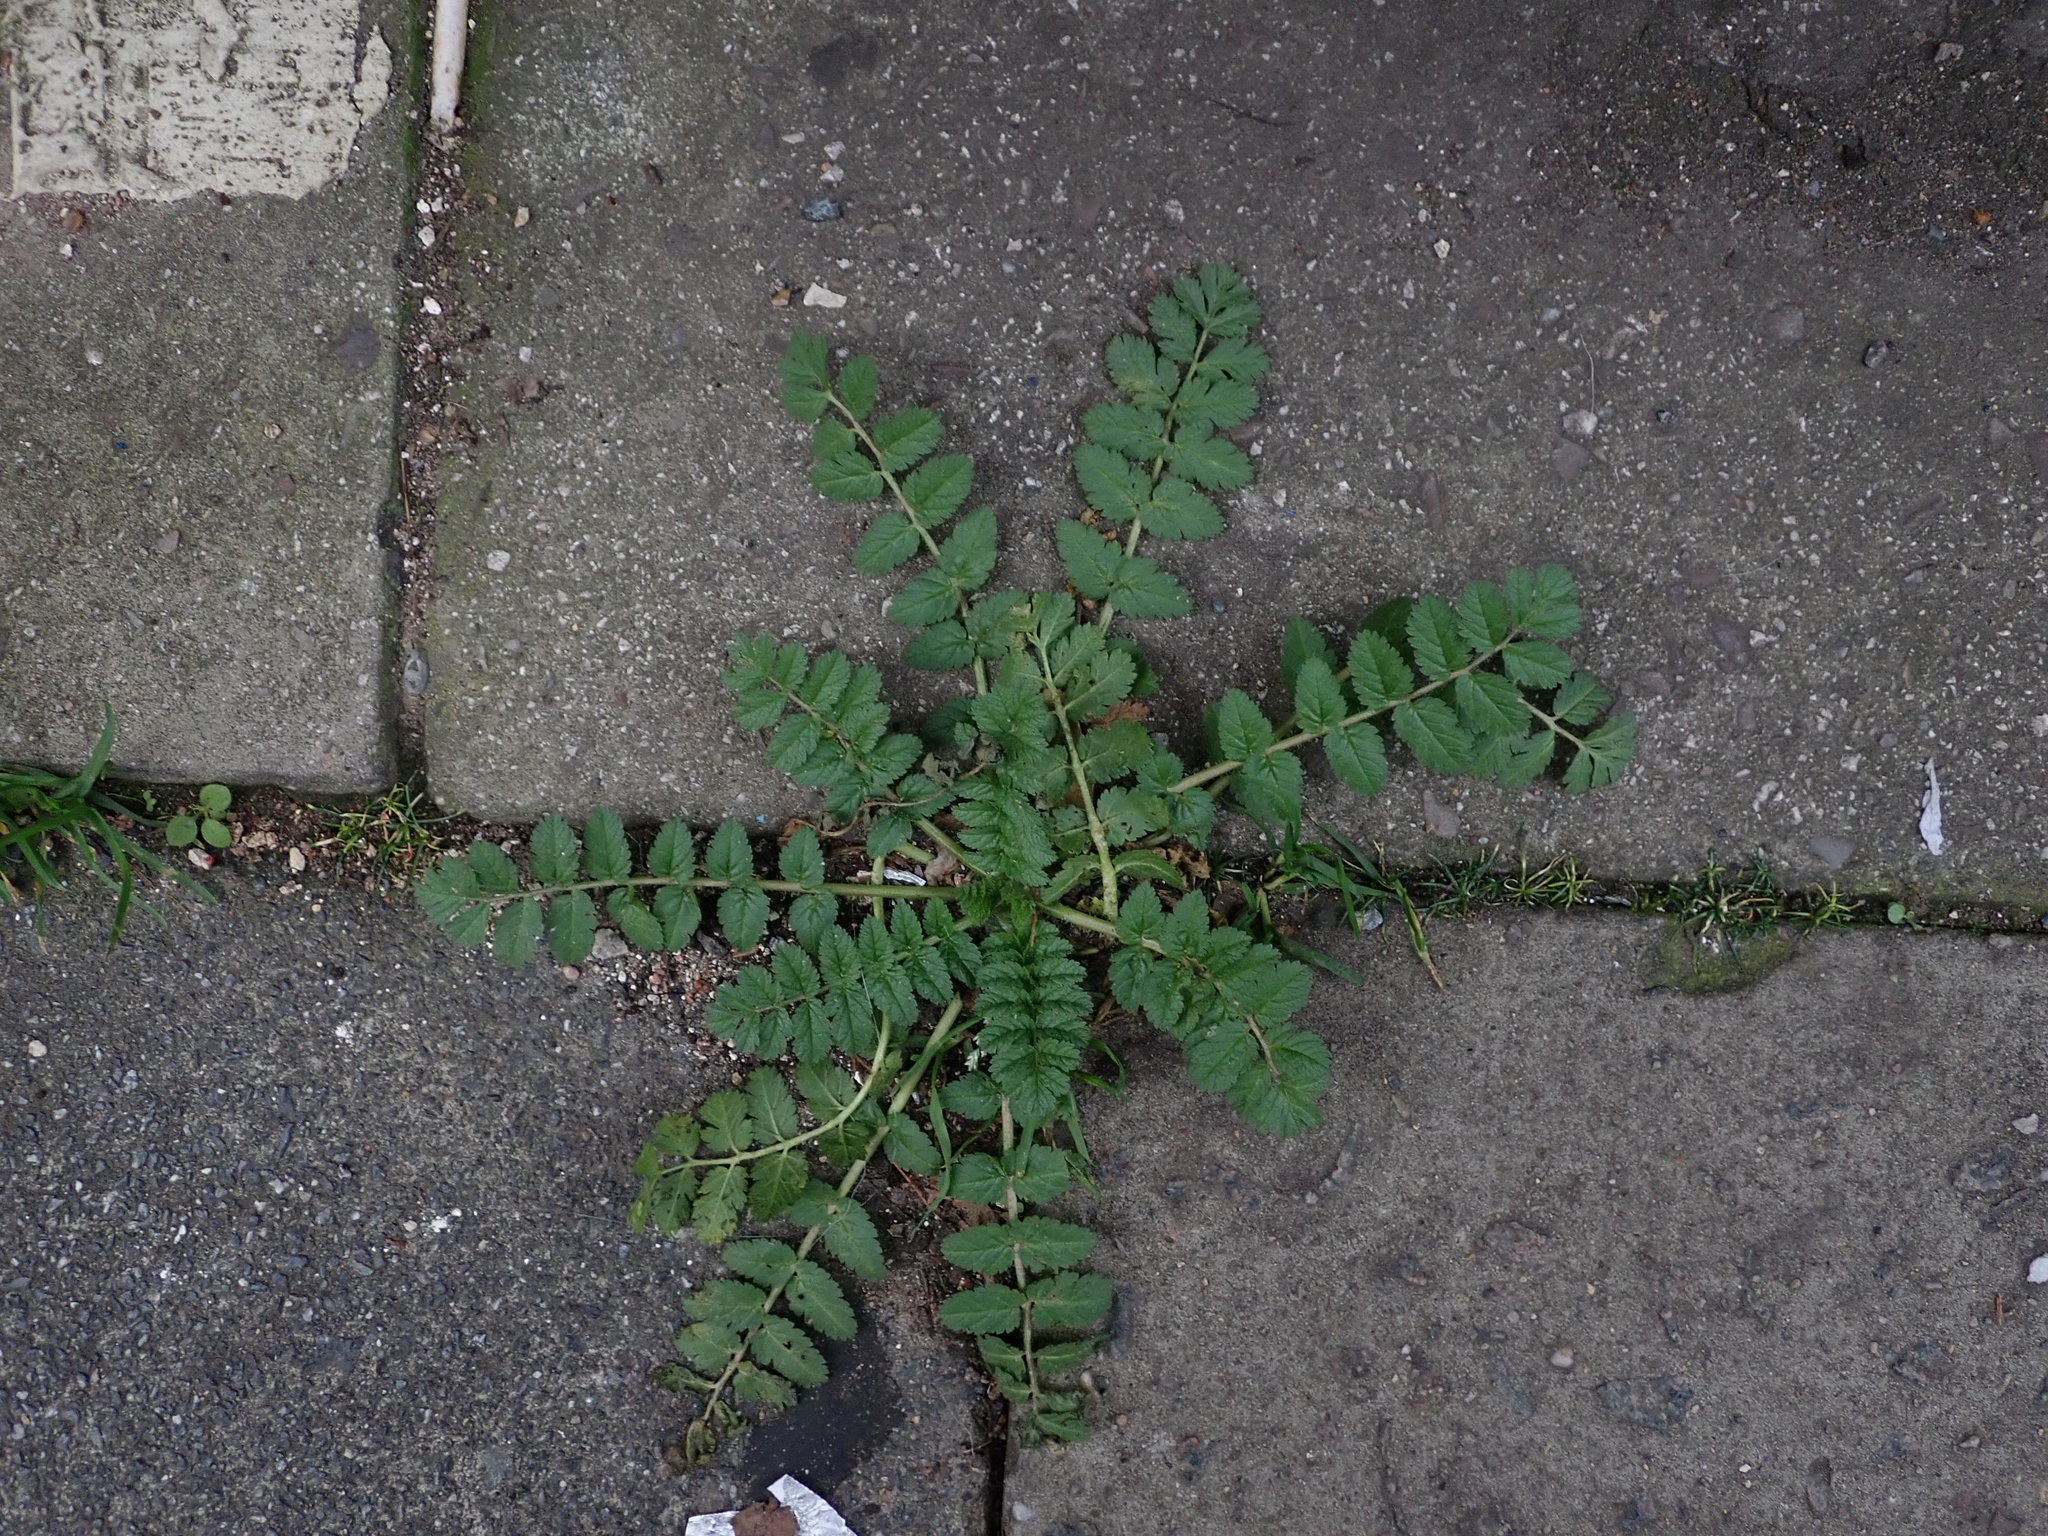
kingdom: Plantae
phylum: Tracheophyta
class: Magnoliopsida
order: Geraniales
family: Geraniaceae
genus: Erodium
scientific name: Erodium moschatum
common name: Musk stork's-bill
